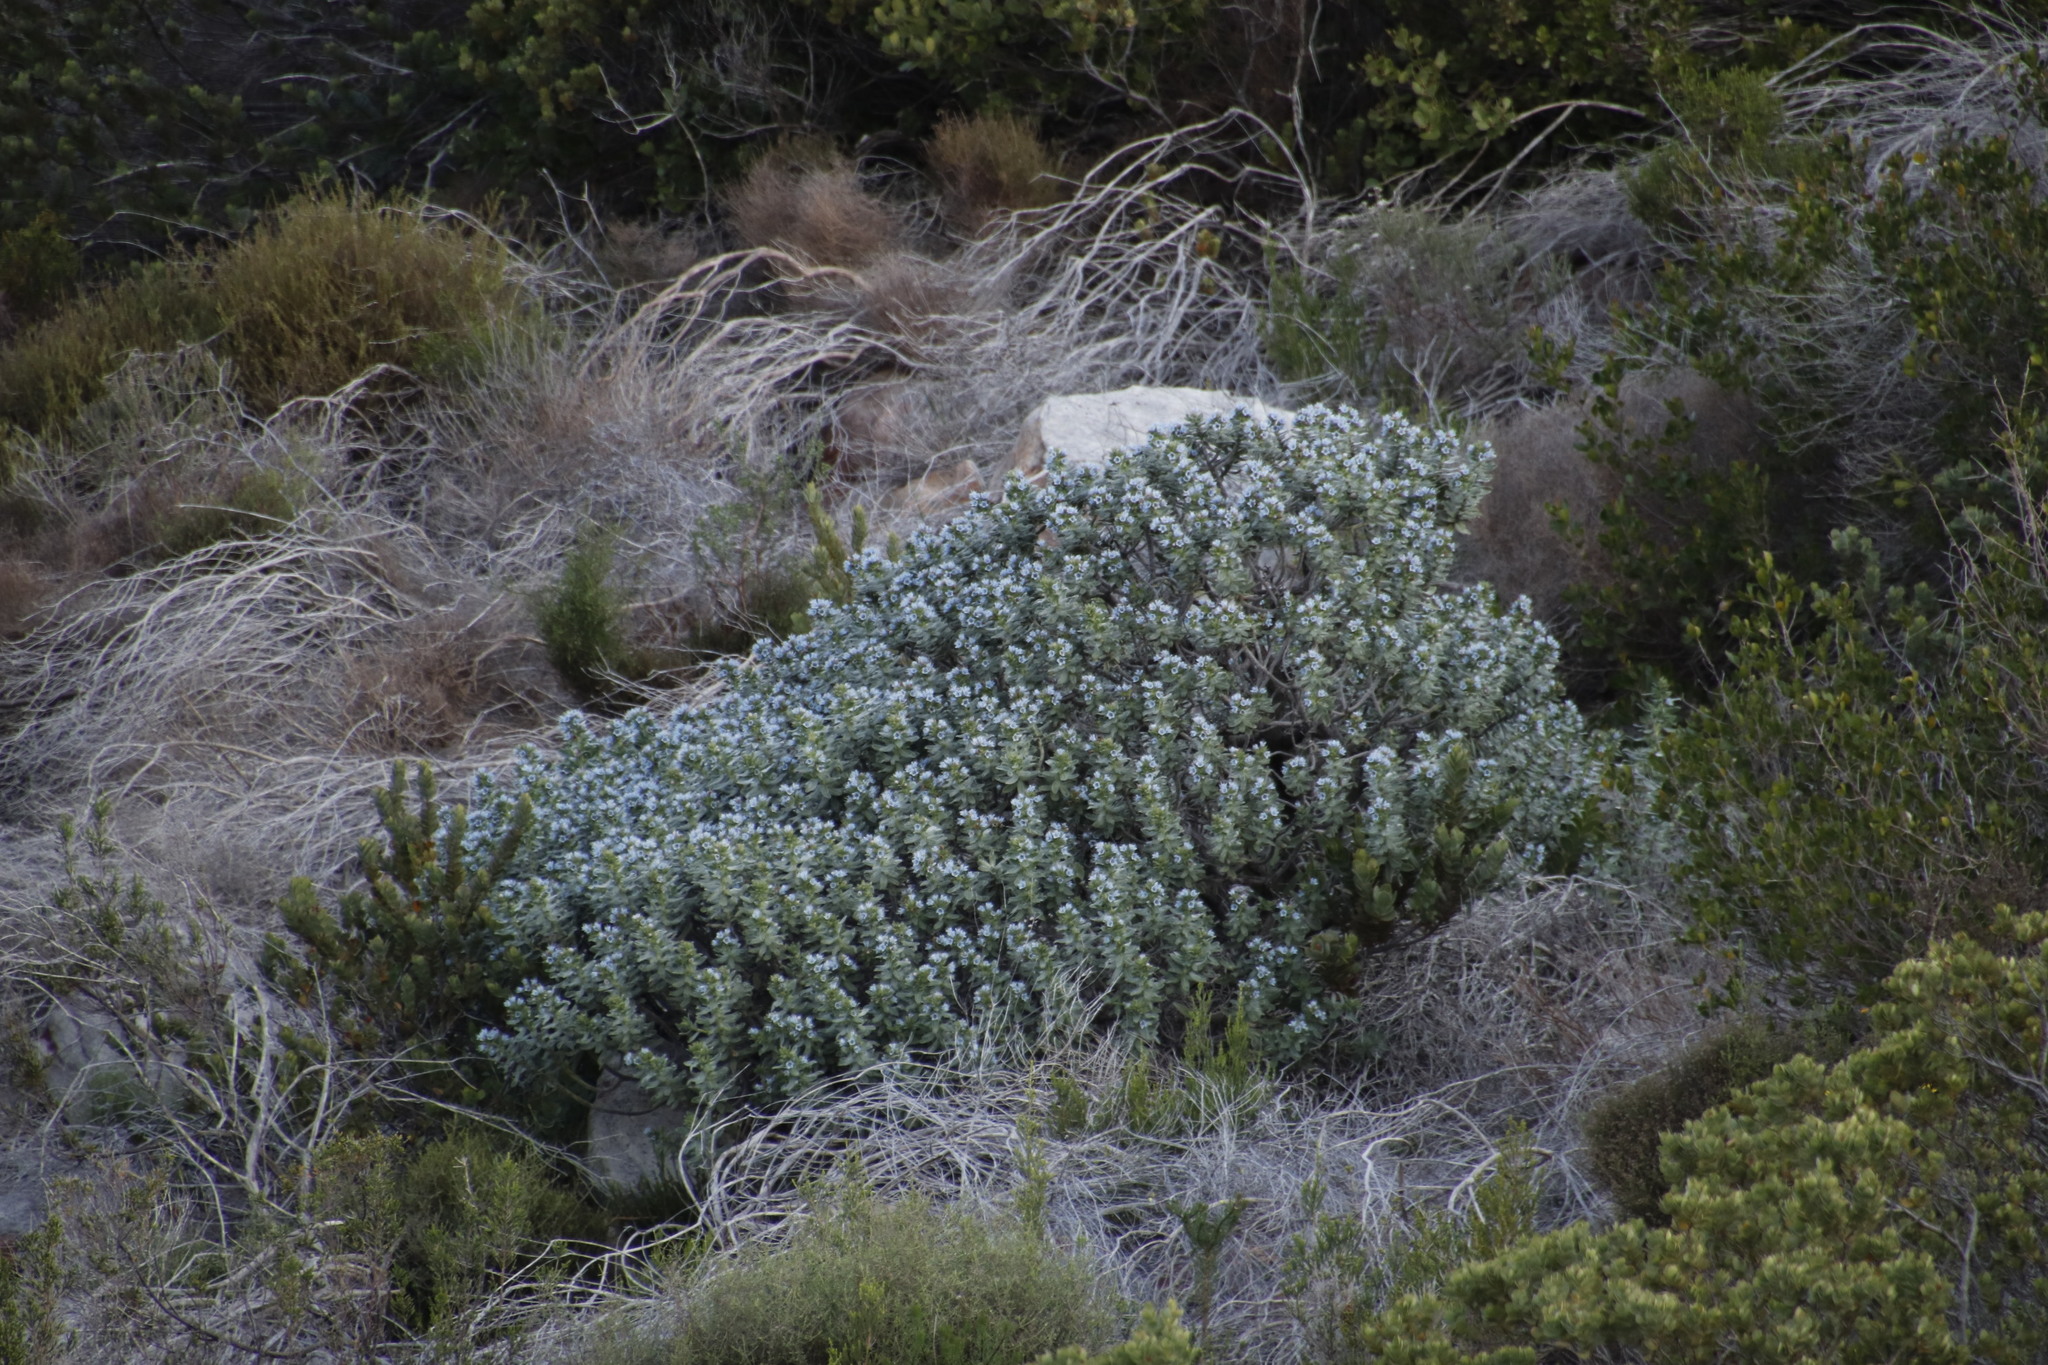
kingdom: Plantae
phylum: Tracheophyta
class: Magnoliopsida
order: Boraginales
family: Boraginaceae
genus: Lobostemon
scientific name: Lobostemon montanus
